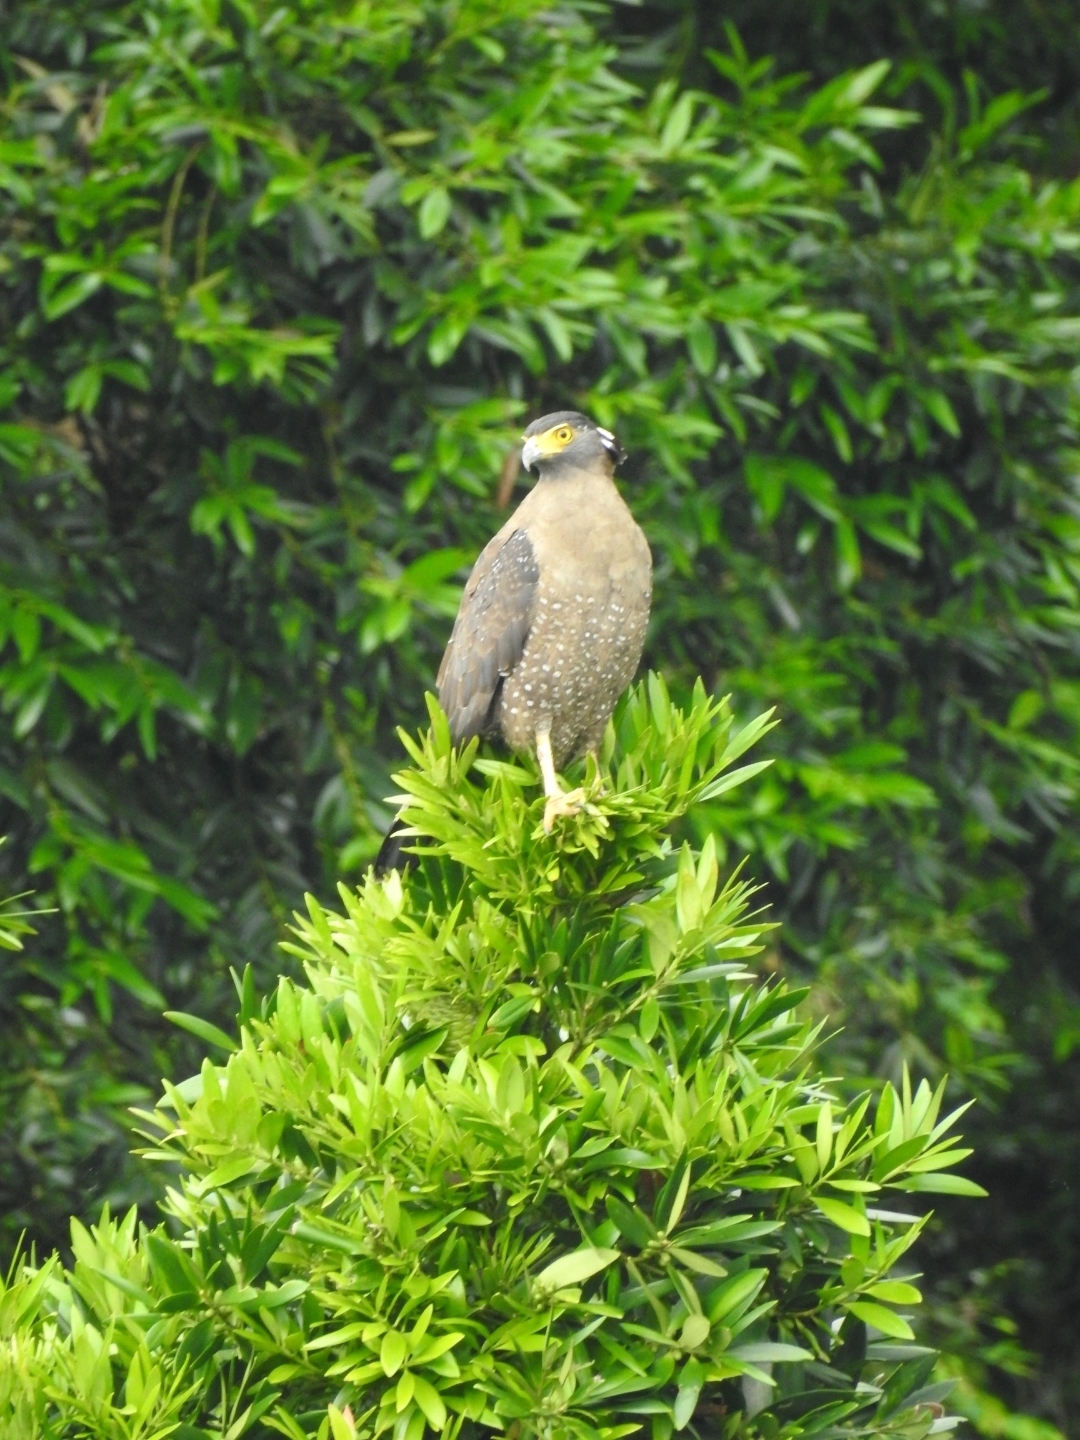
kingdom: Animalia
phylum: Chordata
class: Aves
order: Accipitriformes
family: Accipitridae
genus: Spilornis
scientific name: Spilornis cheela
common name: Crested serpent eagle
